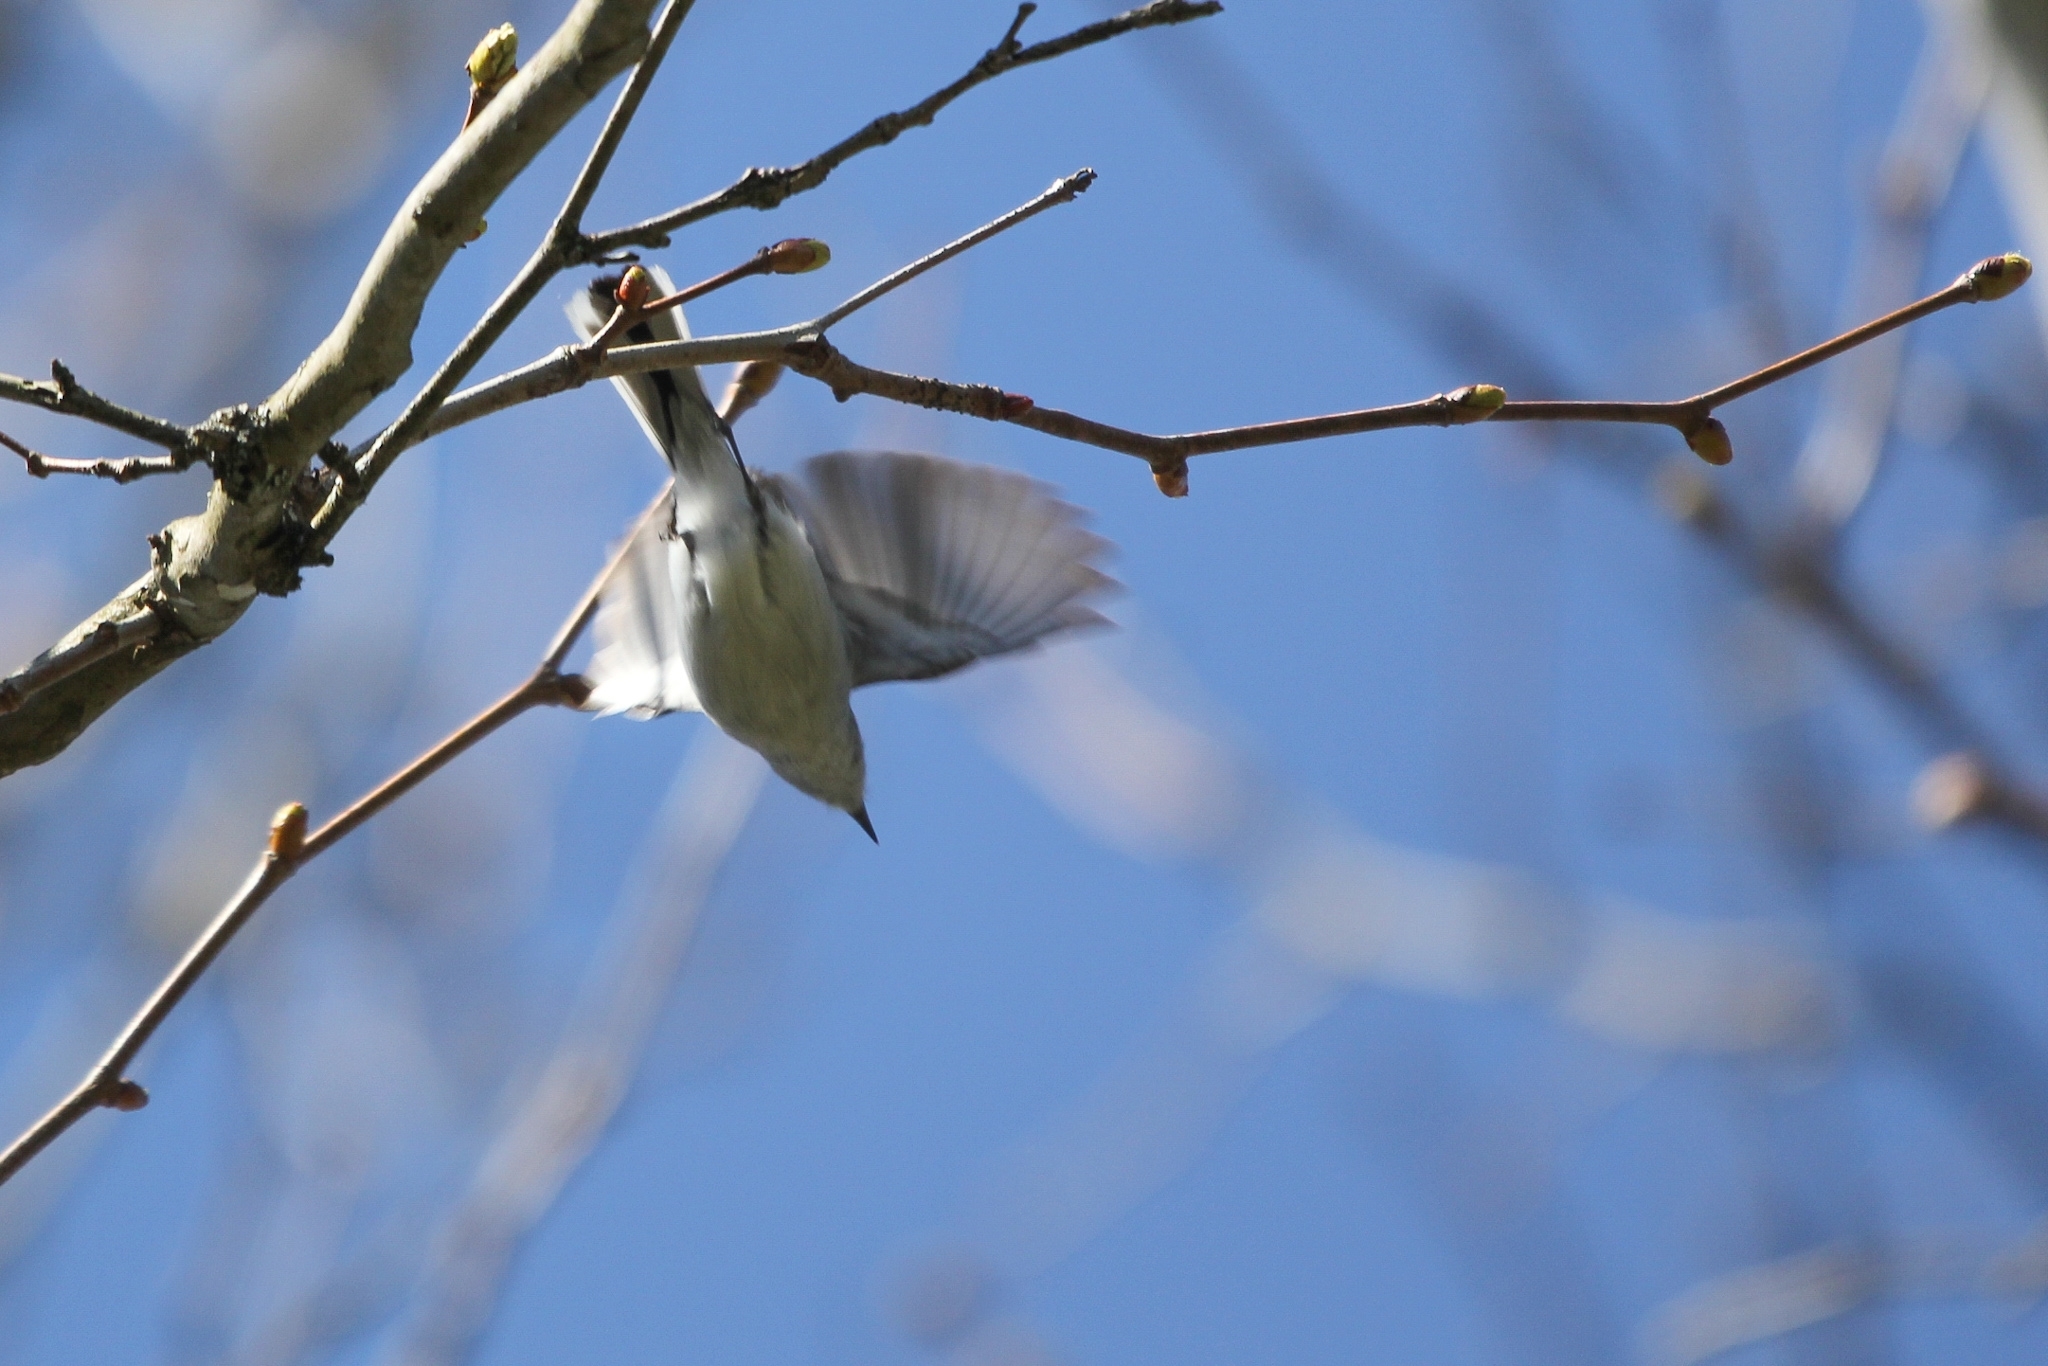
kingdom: Animalia
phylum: Chordata
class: Aves
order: Passeriformes
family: Polioptilidae
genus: Polioptila
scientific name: Polioptila caerulea
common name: Blue-gray gnatcatcher
